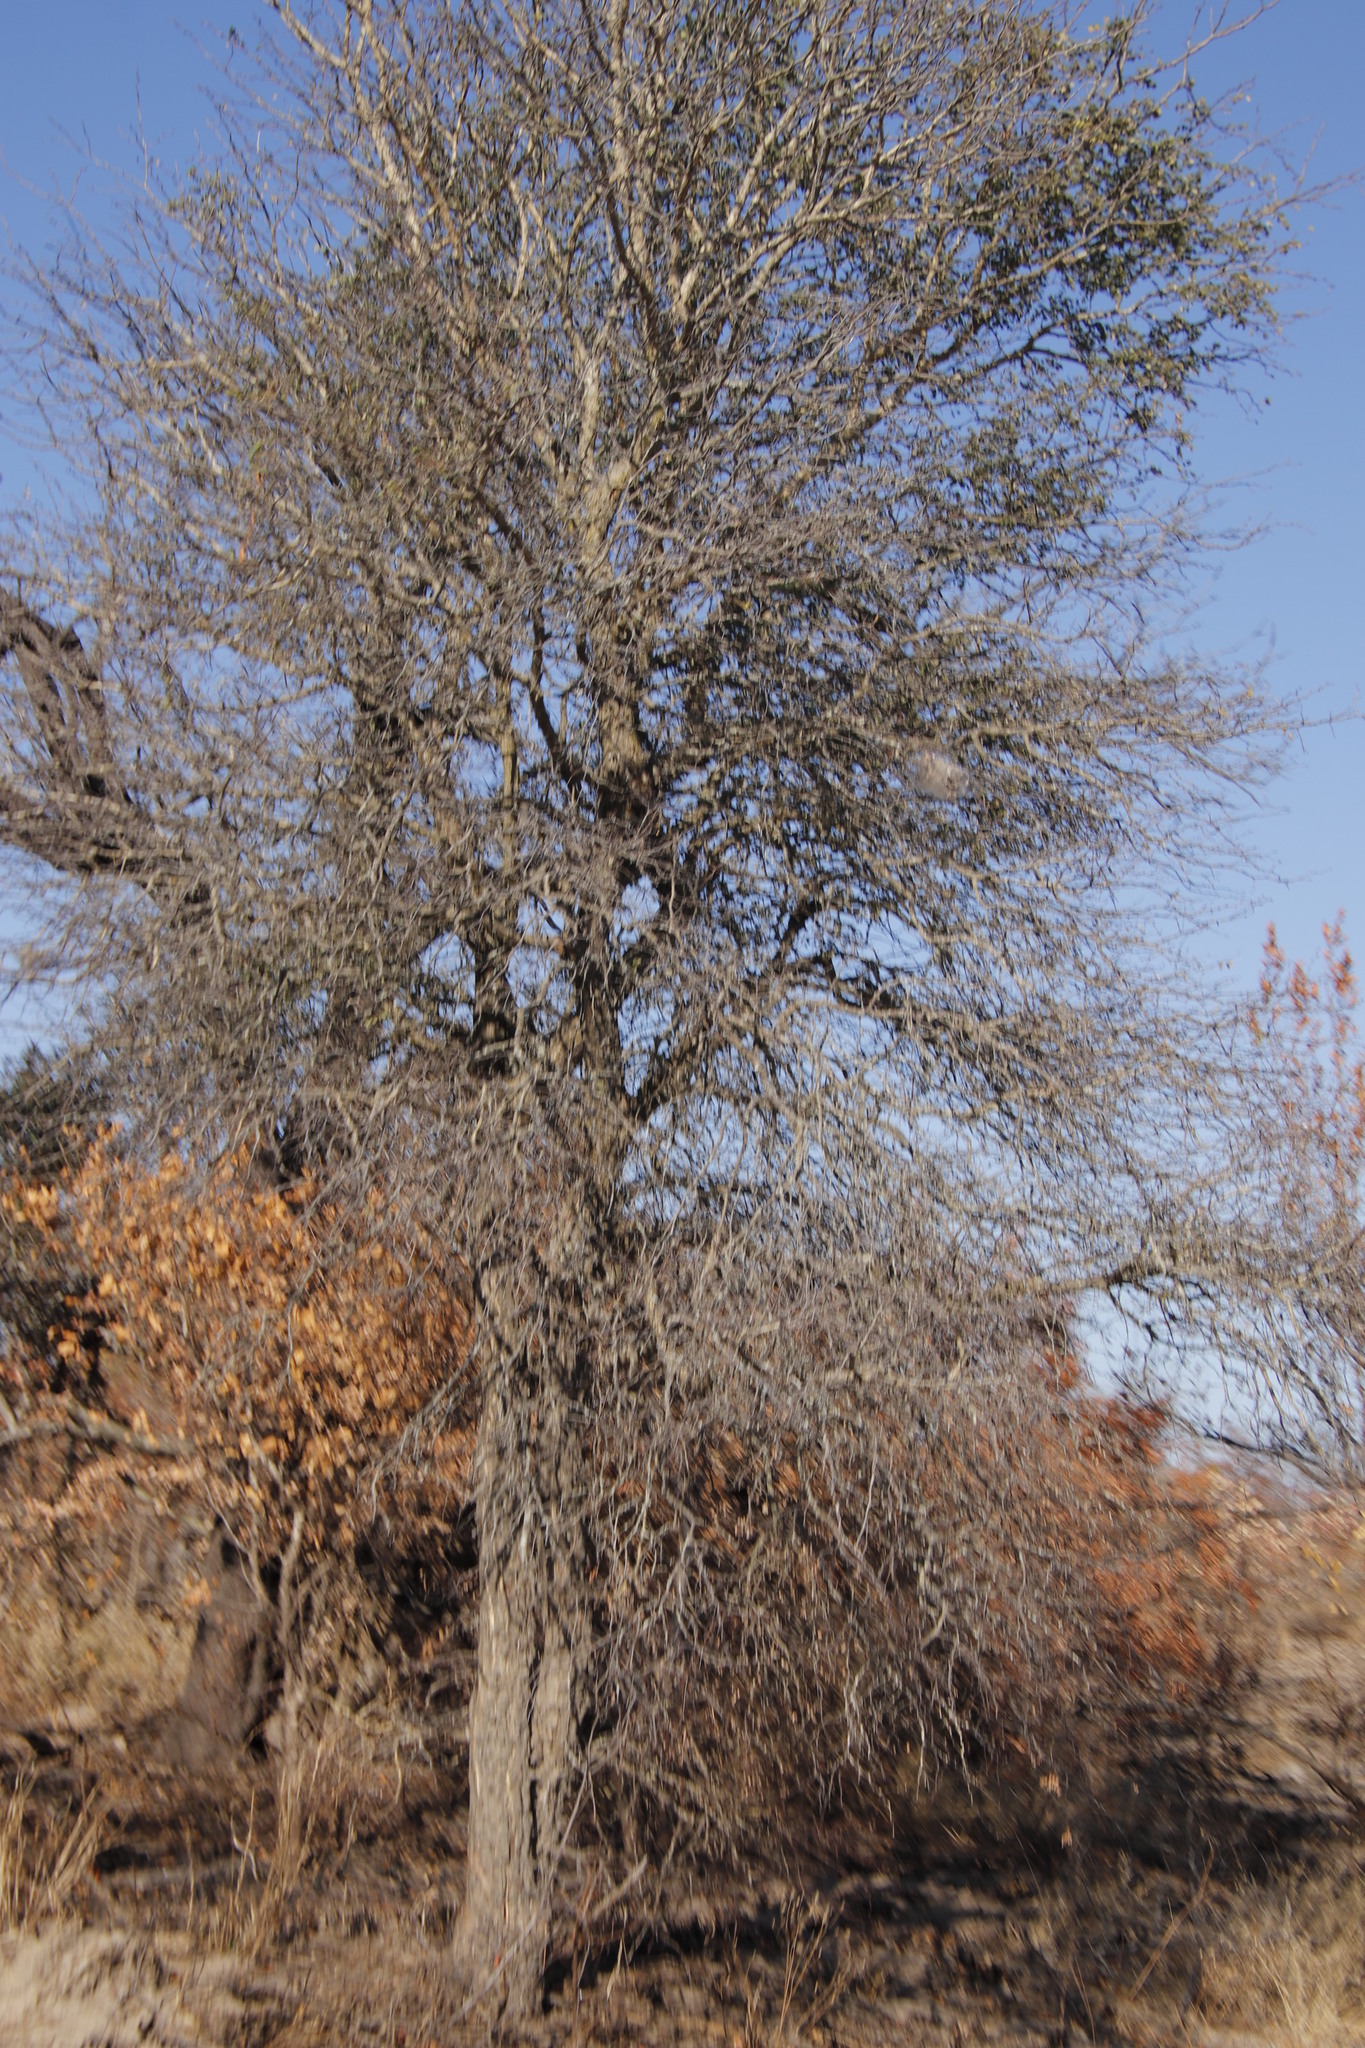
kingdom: Plantae
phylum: Tracheophyta
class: Magnoliopsida
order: Fabales
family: Fabaceae
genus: Senegalia
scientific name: Senegalia nigrescens
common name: Knobthorn
